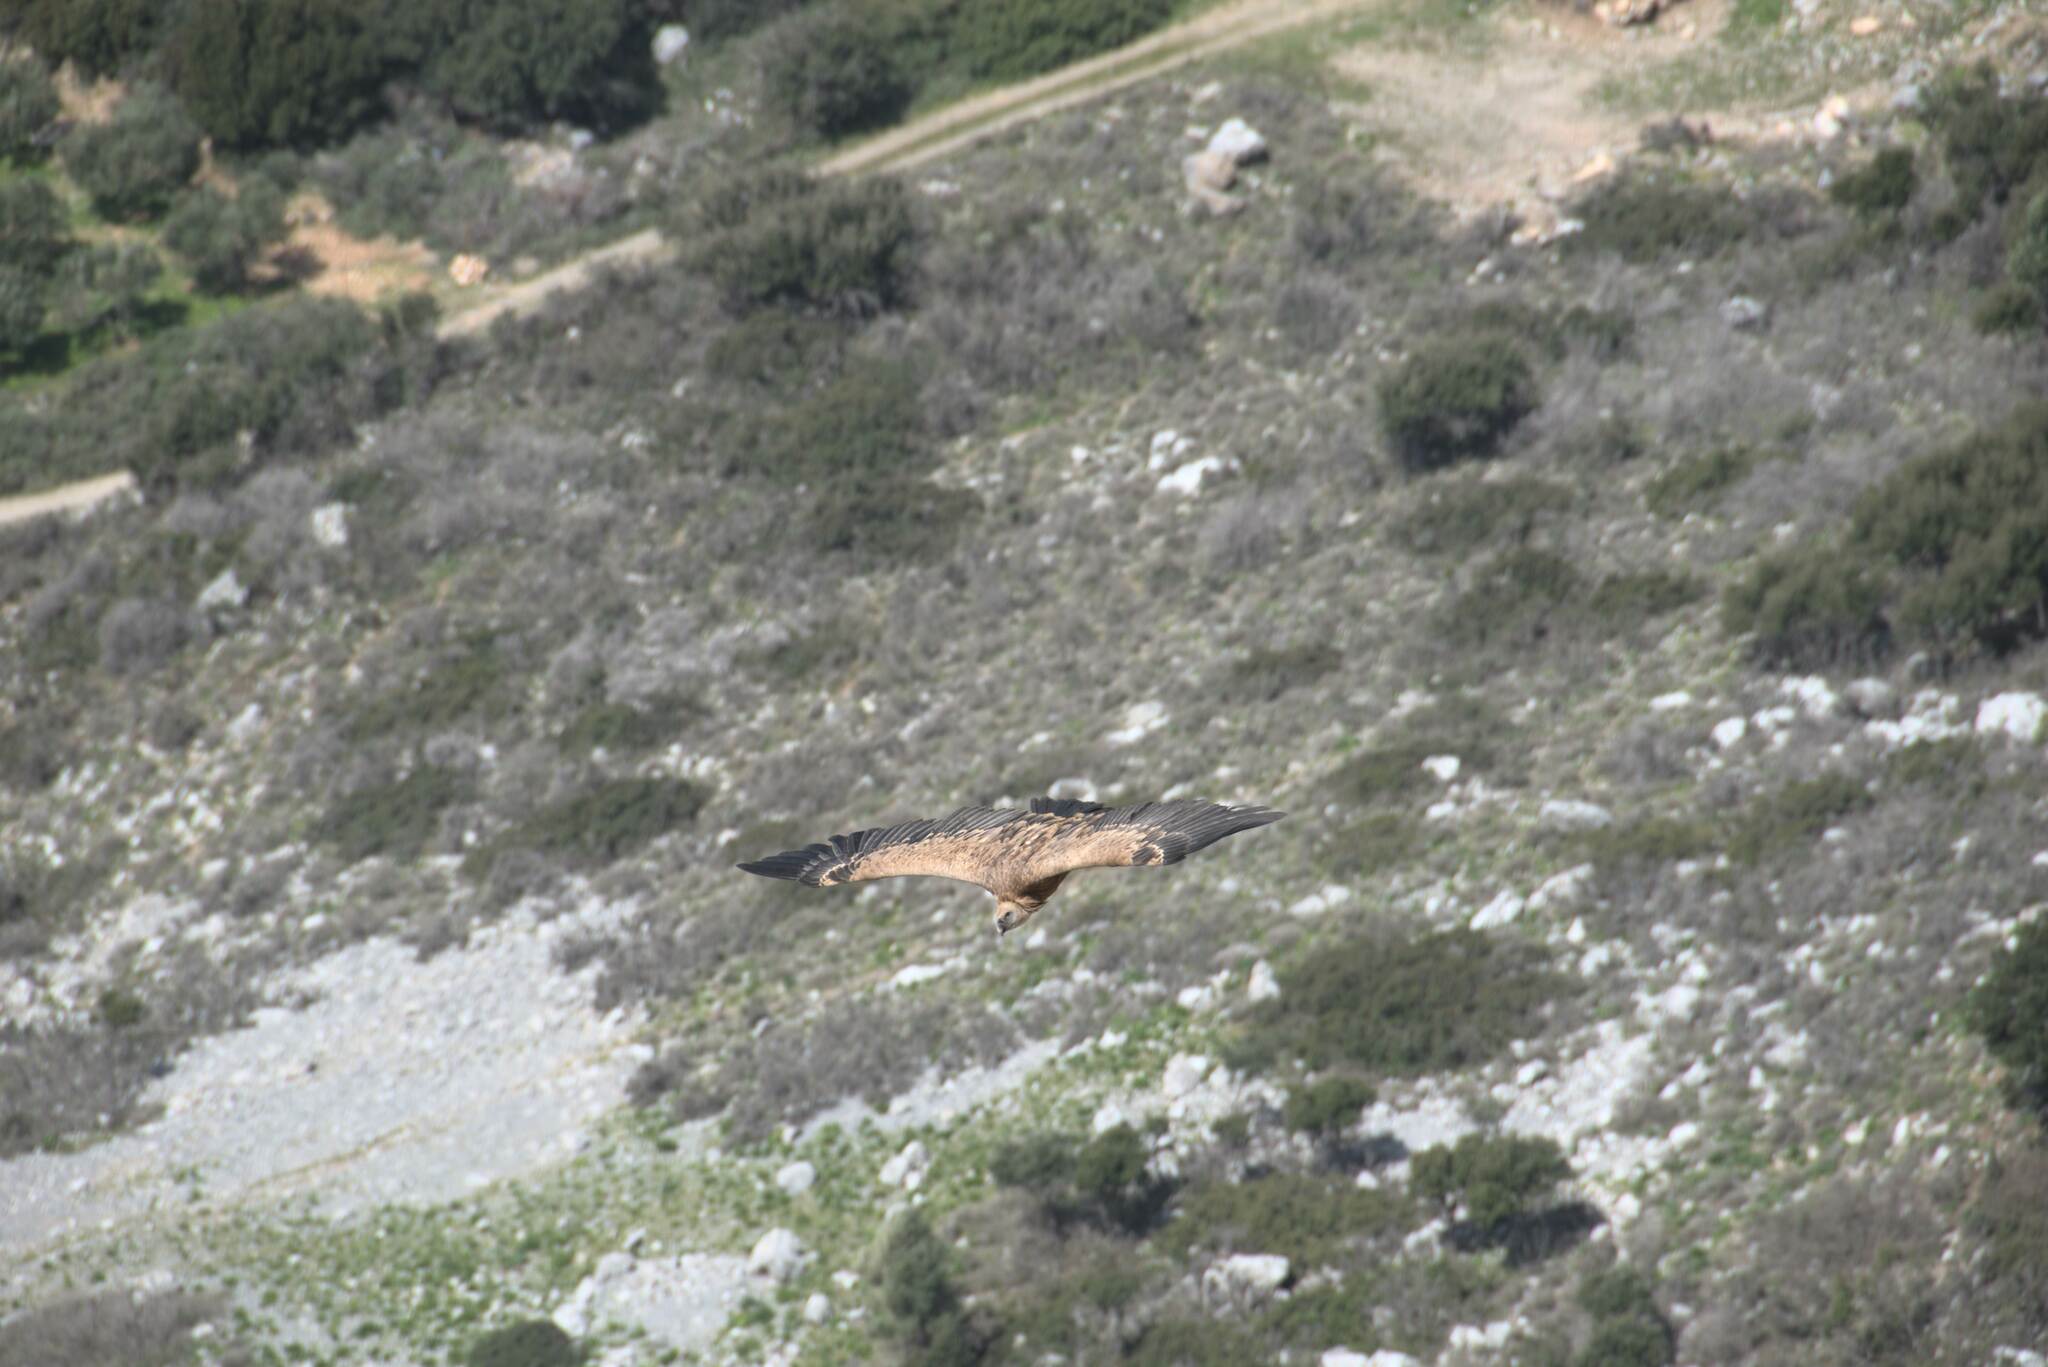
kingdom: Animalia
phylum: Chordata
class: Aves
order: Accipitriformes
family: Accipitridae
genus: Gyps
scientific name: Gyps fulvus
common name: Griffon vulture
